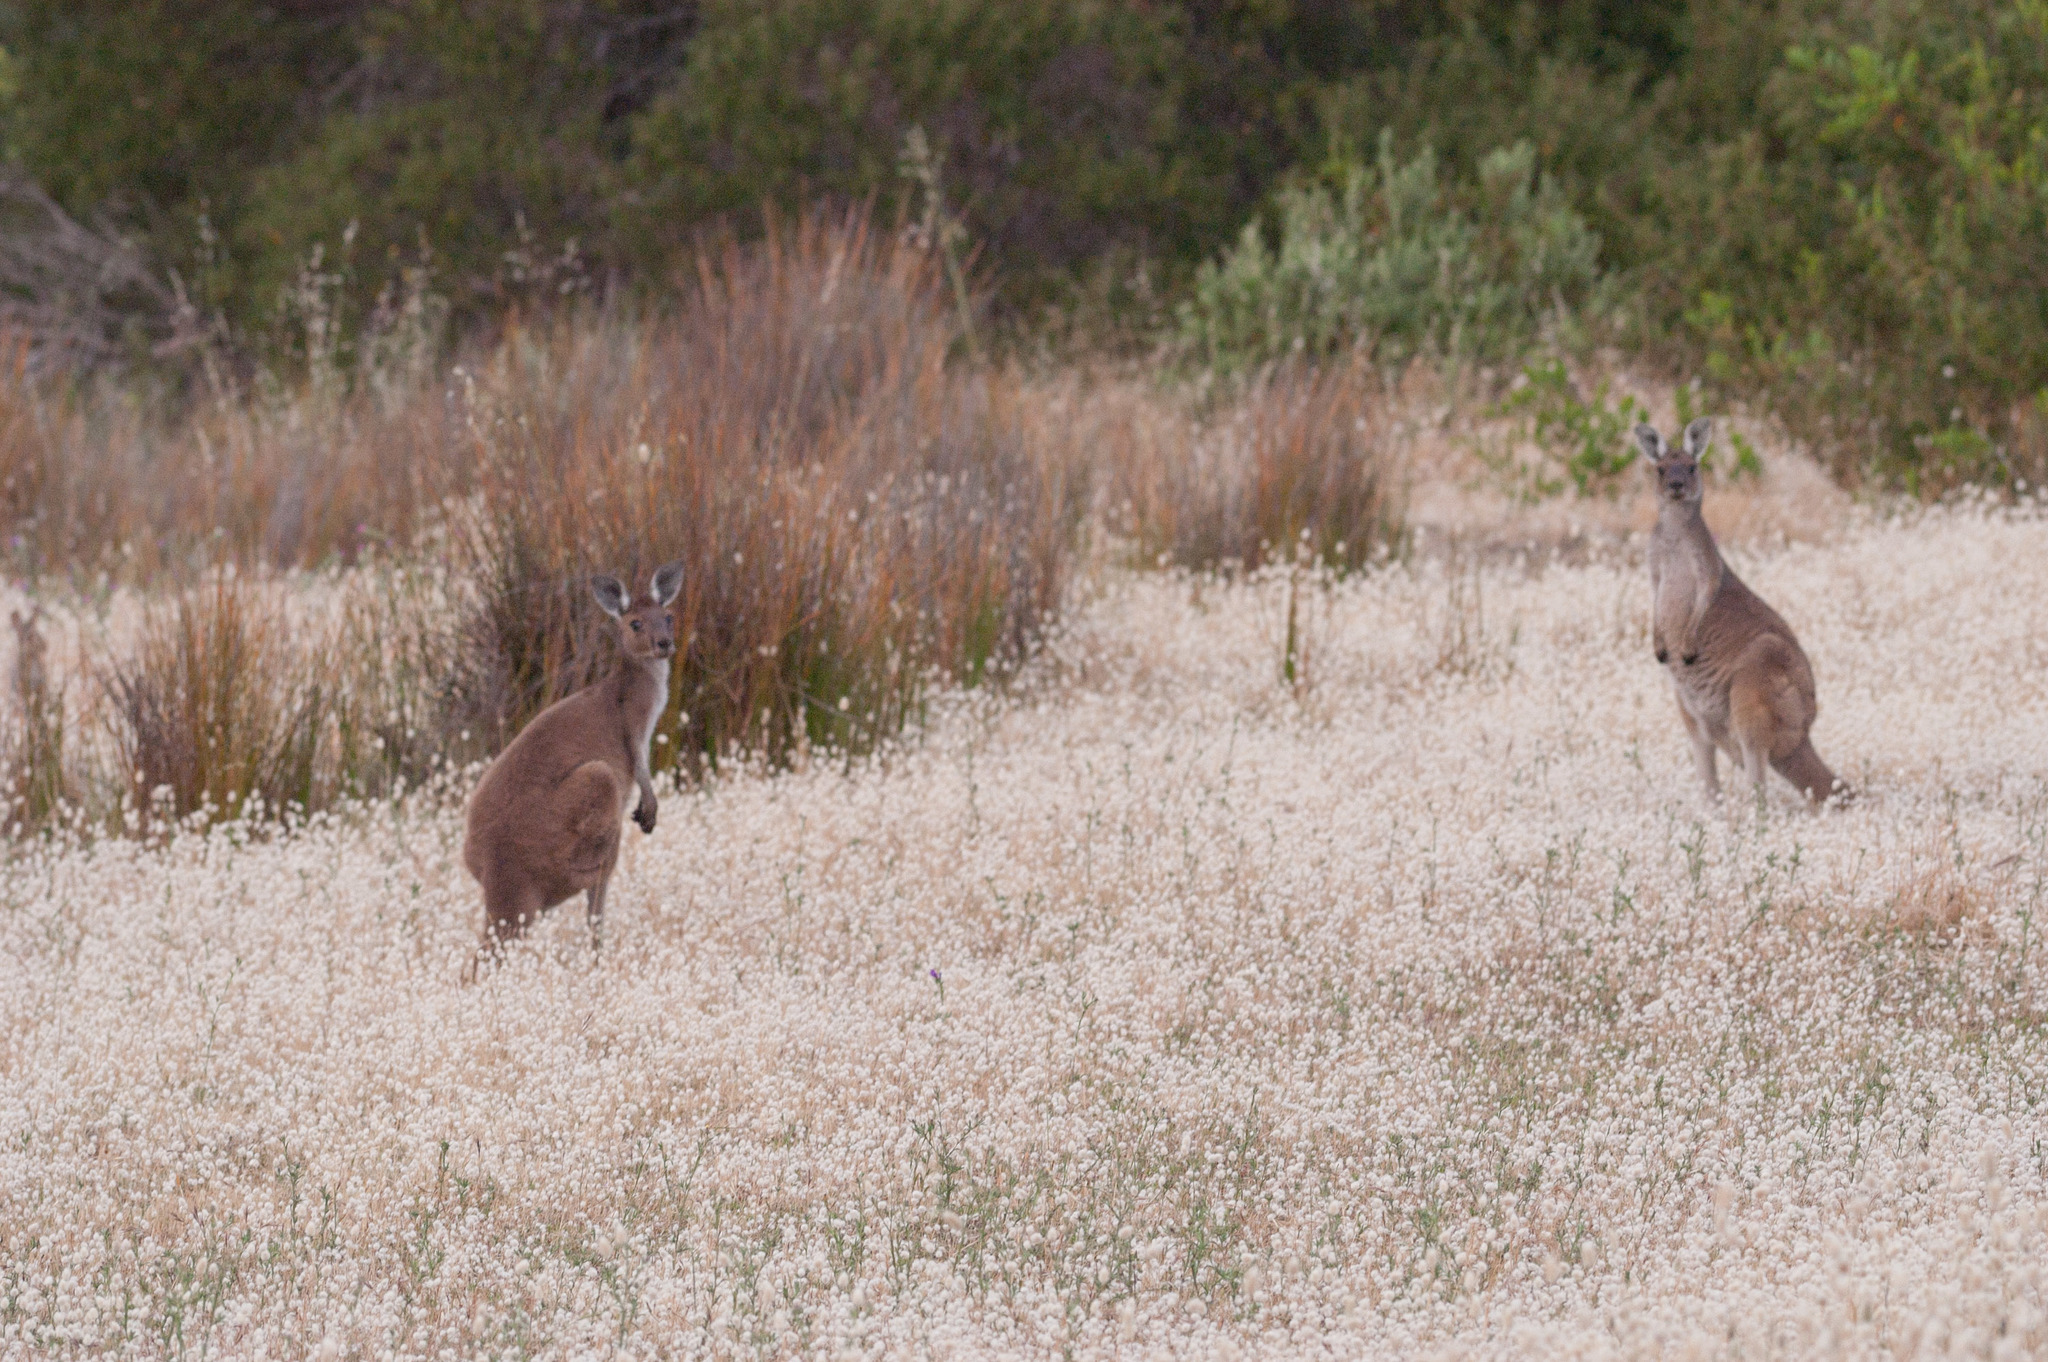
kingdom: Animalia
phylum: Chordata
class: Mammalia
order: Diprotodontia
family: Macropodidae
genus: Macropus
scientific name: Macropus fuliginosus
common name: Western grey kangaroo
